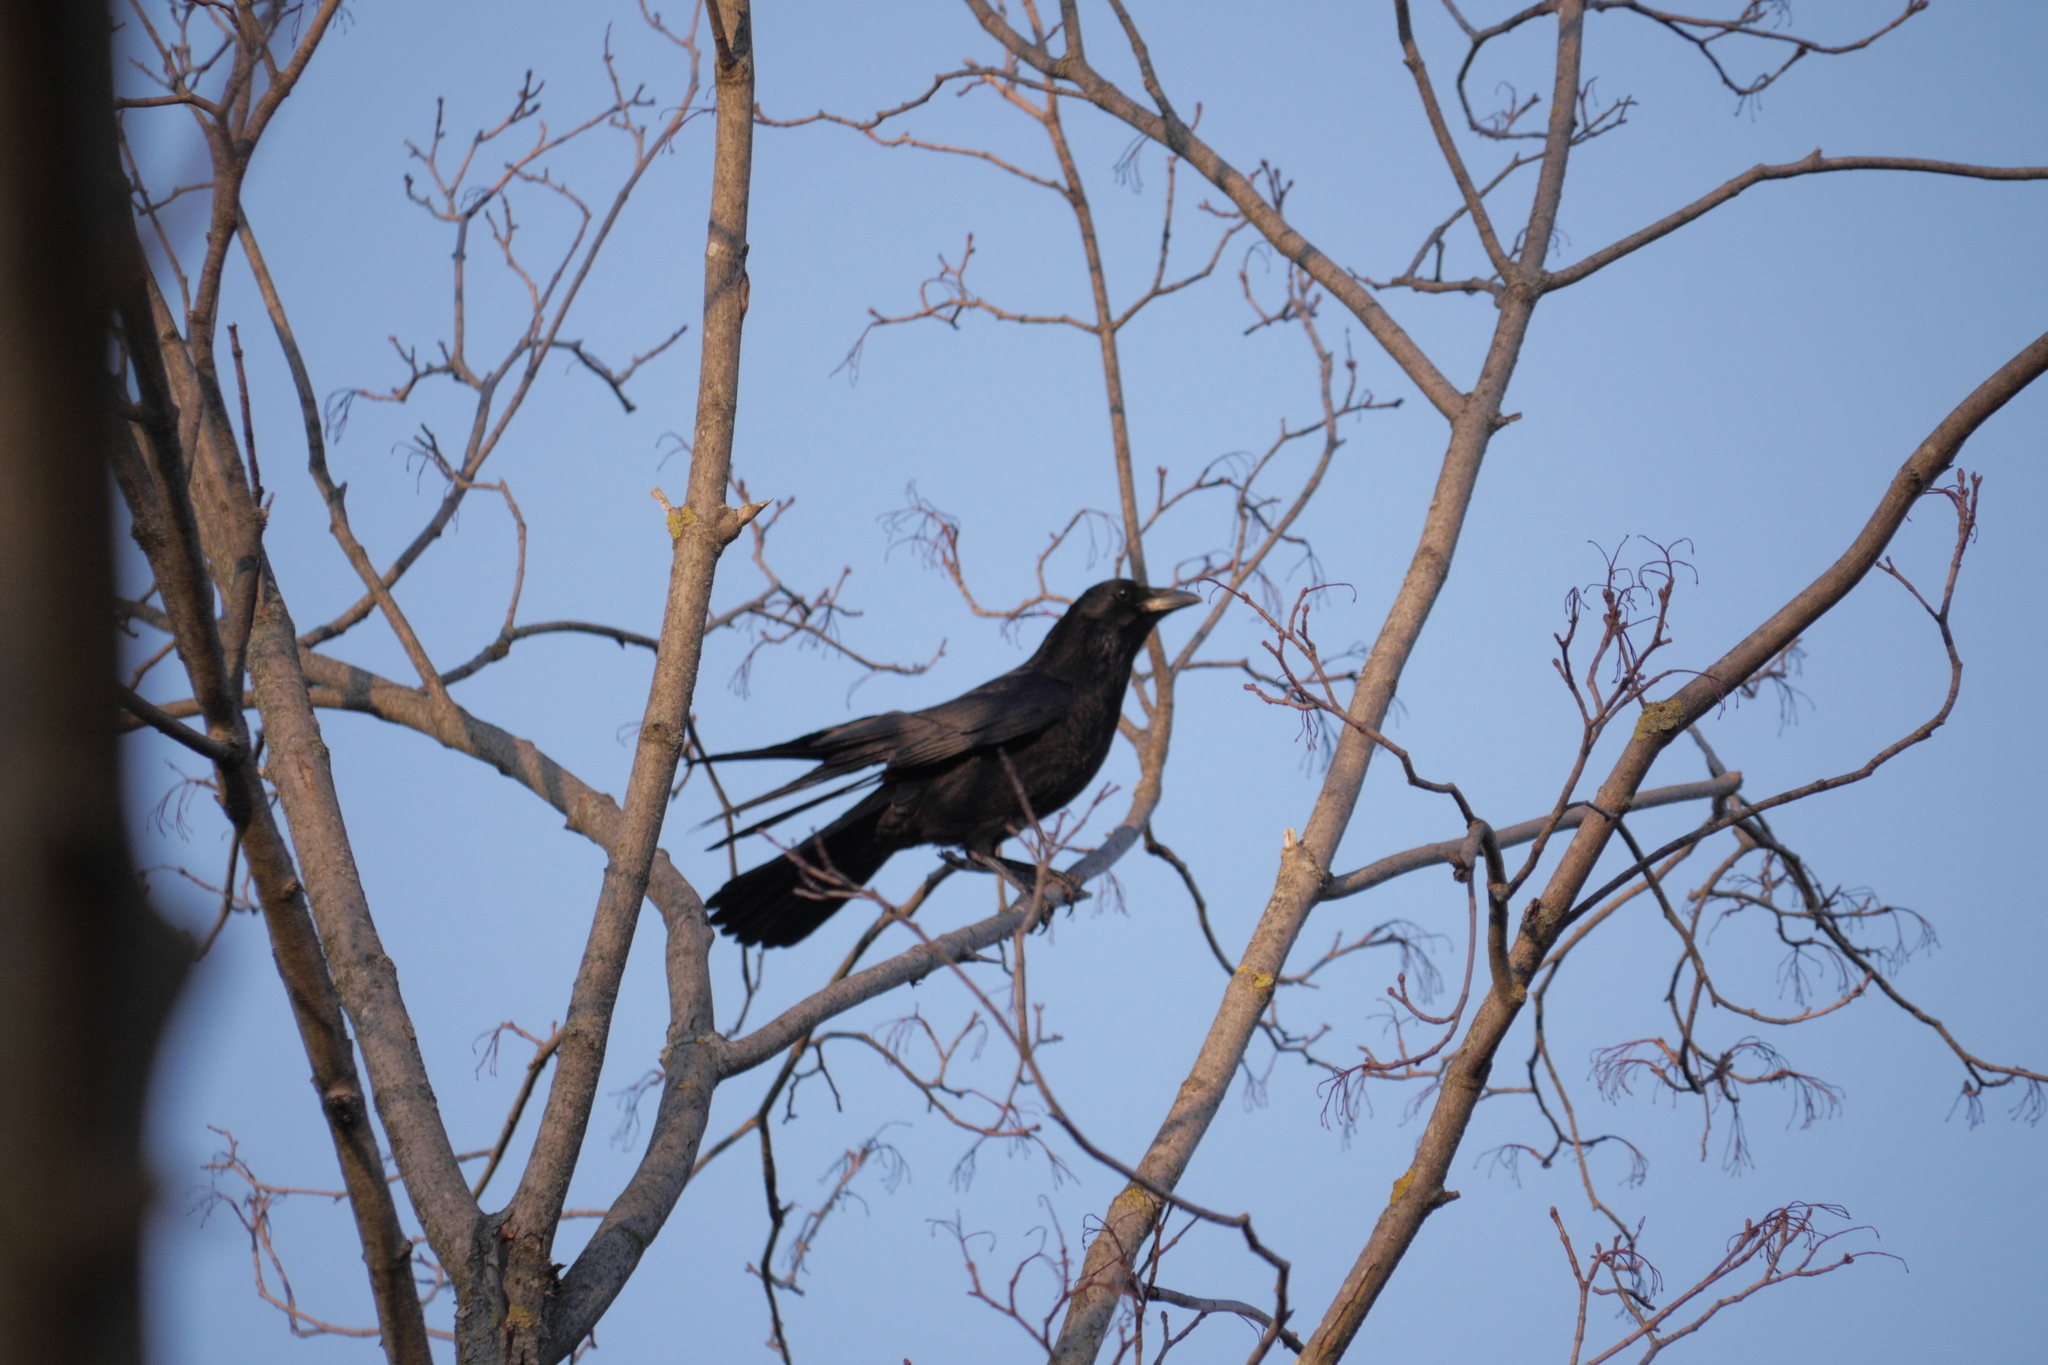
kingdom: Animalia
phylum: Chordata
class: Aves
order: Passeriformes
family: Corvidae
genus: Corvus
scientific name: Corvus corone
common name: Carrion crow
